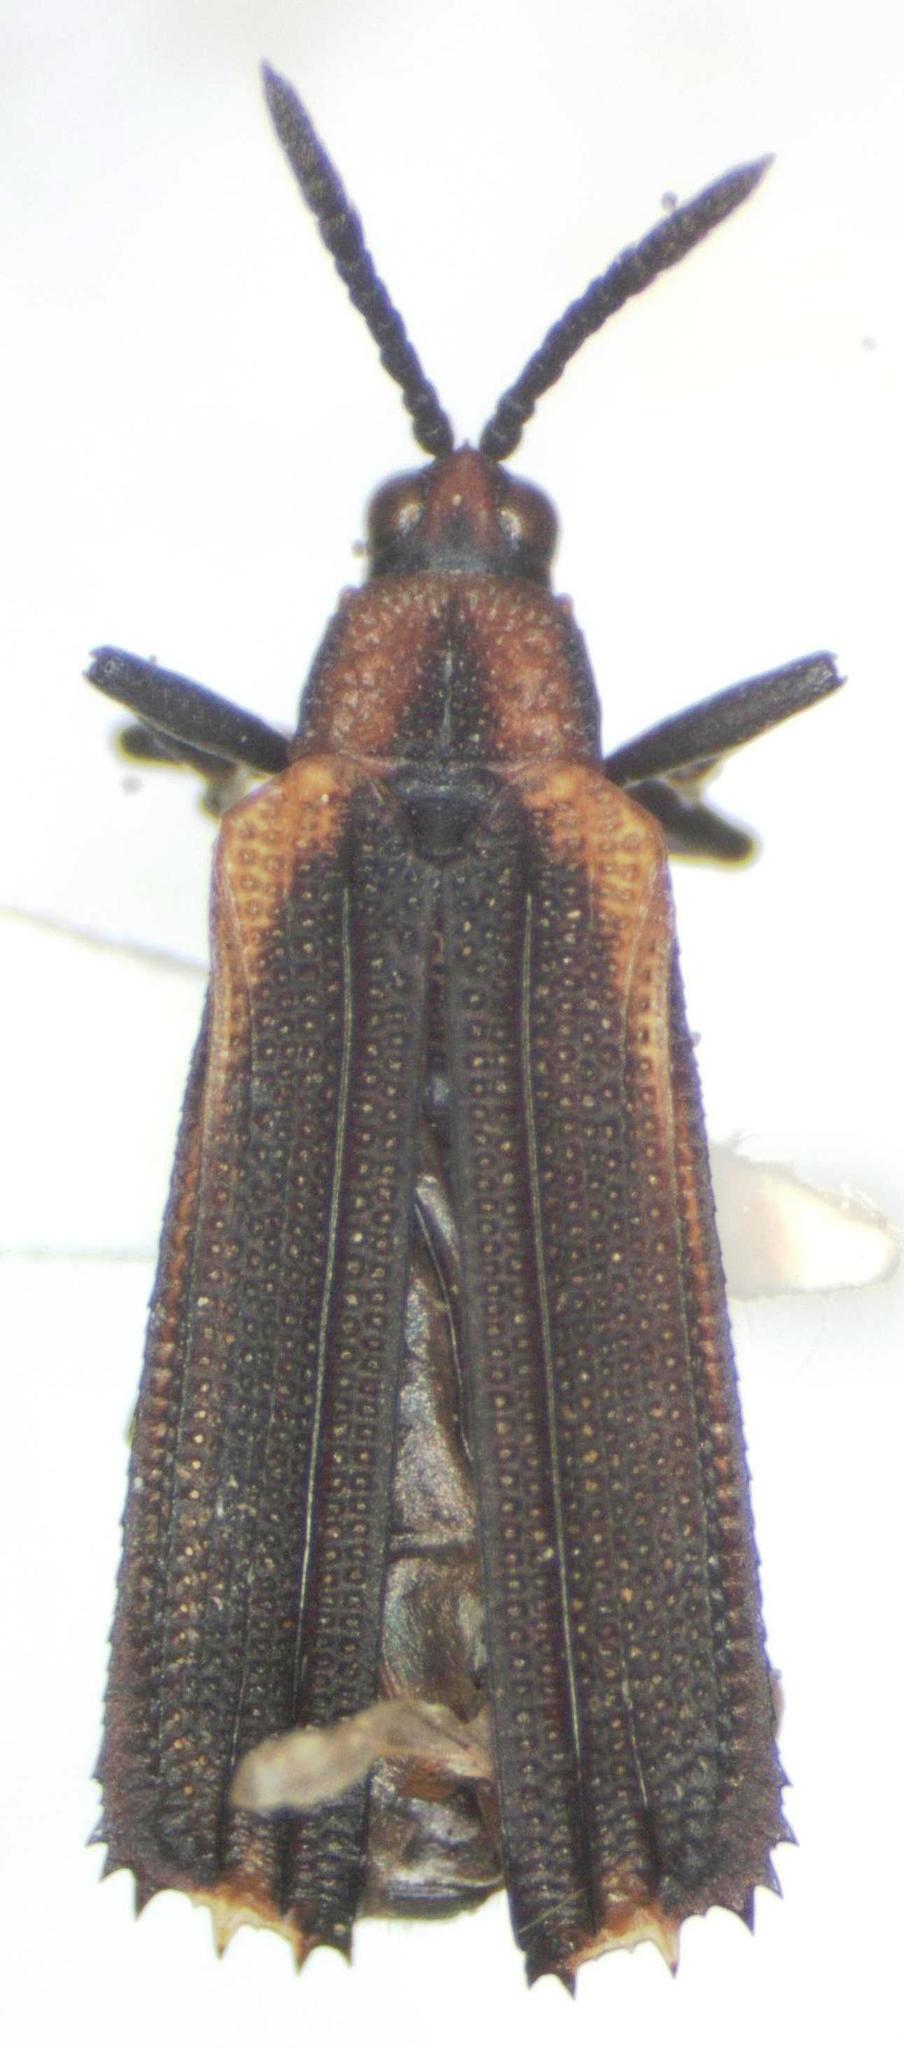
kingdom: Animalia
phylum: Arthropoda
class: Insecta
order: Coleoptera
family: Chrysomelidae
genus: Heterispa
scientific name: Heterispa vinula
